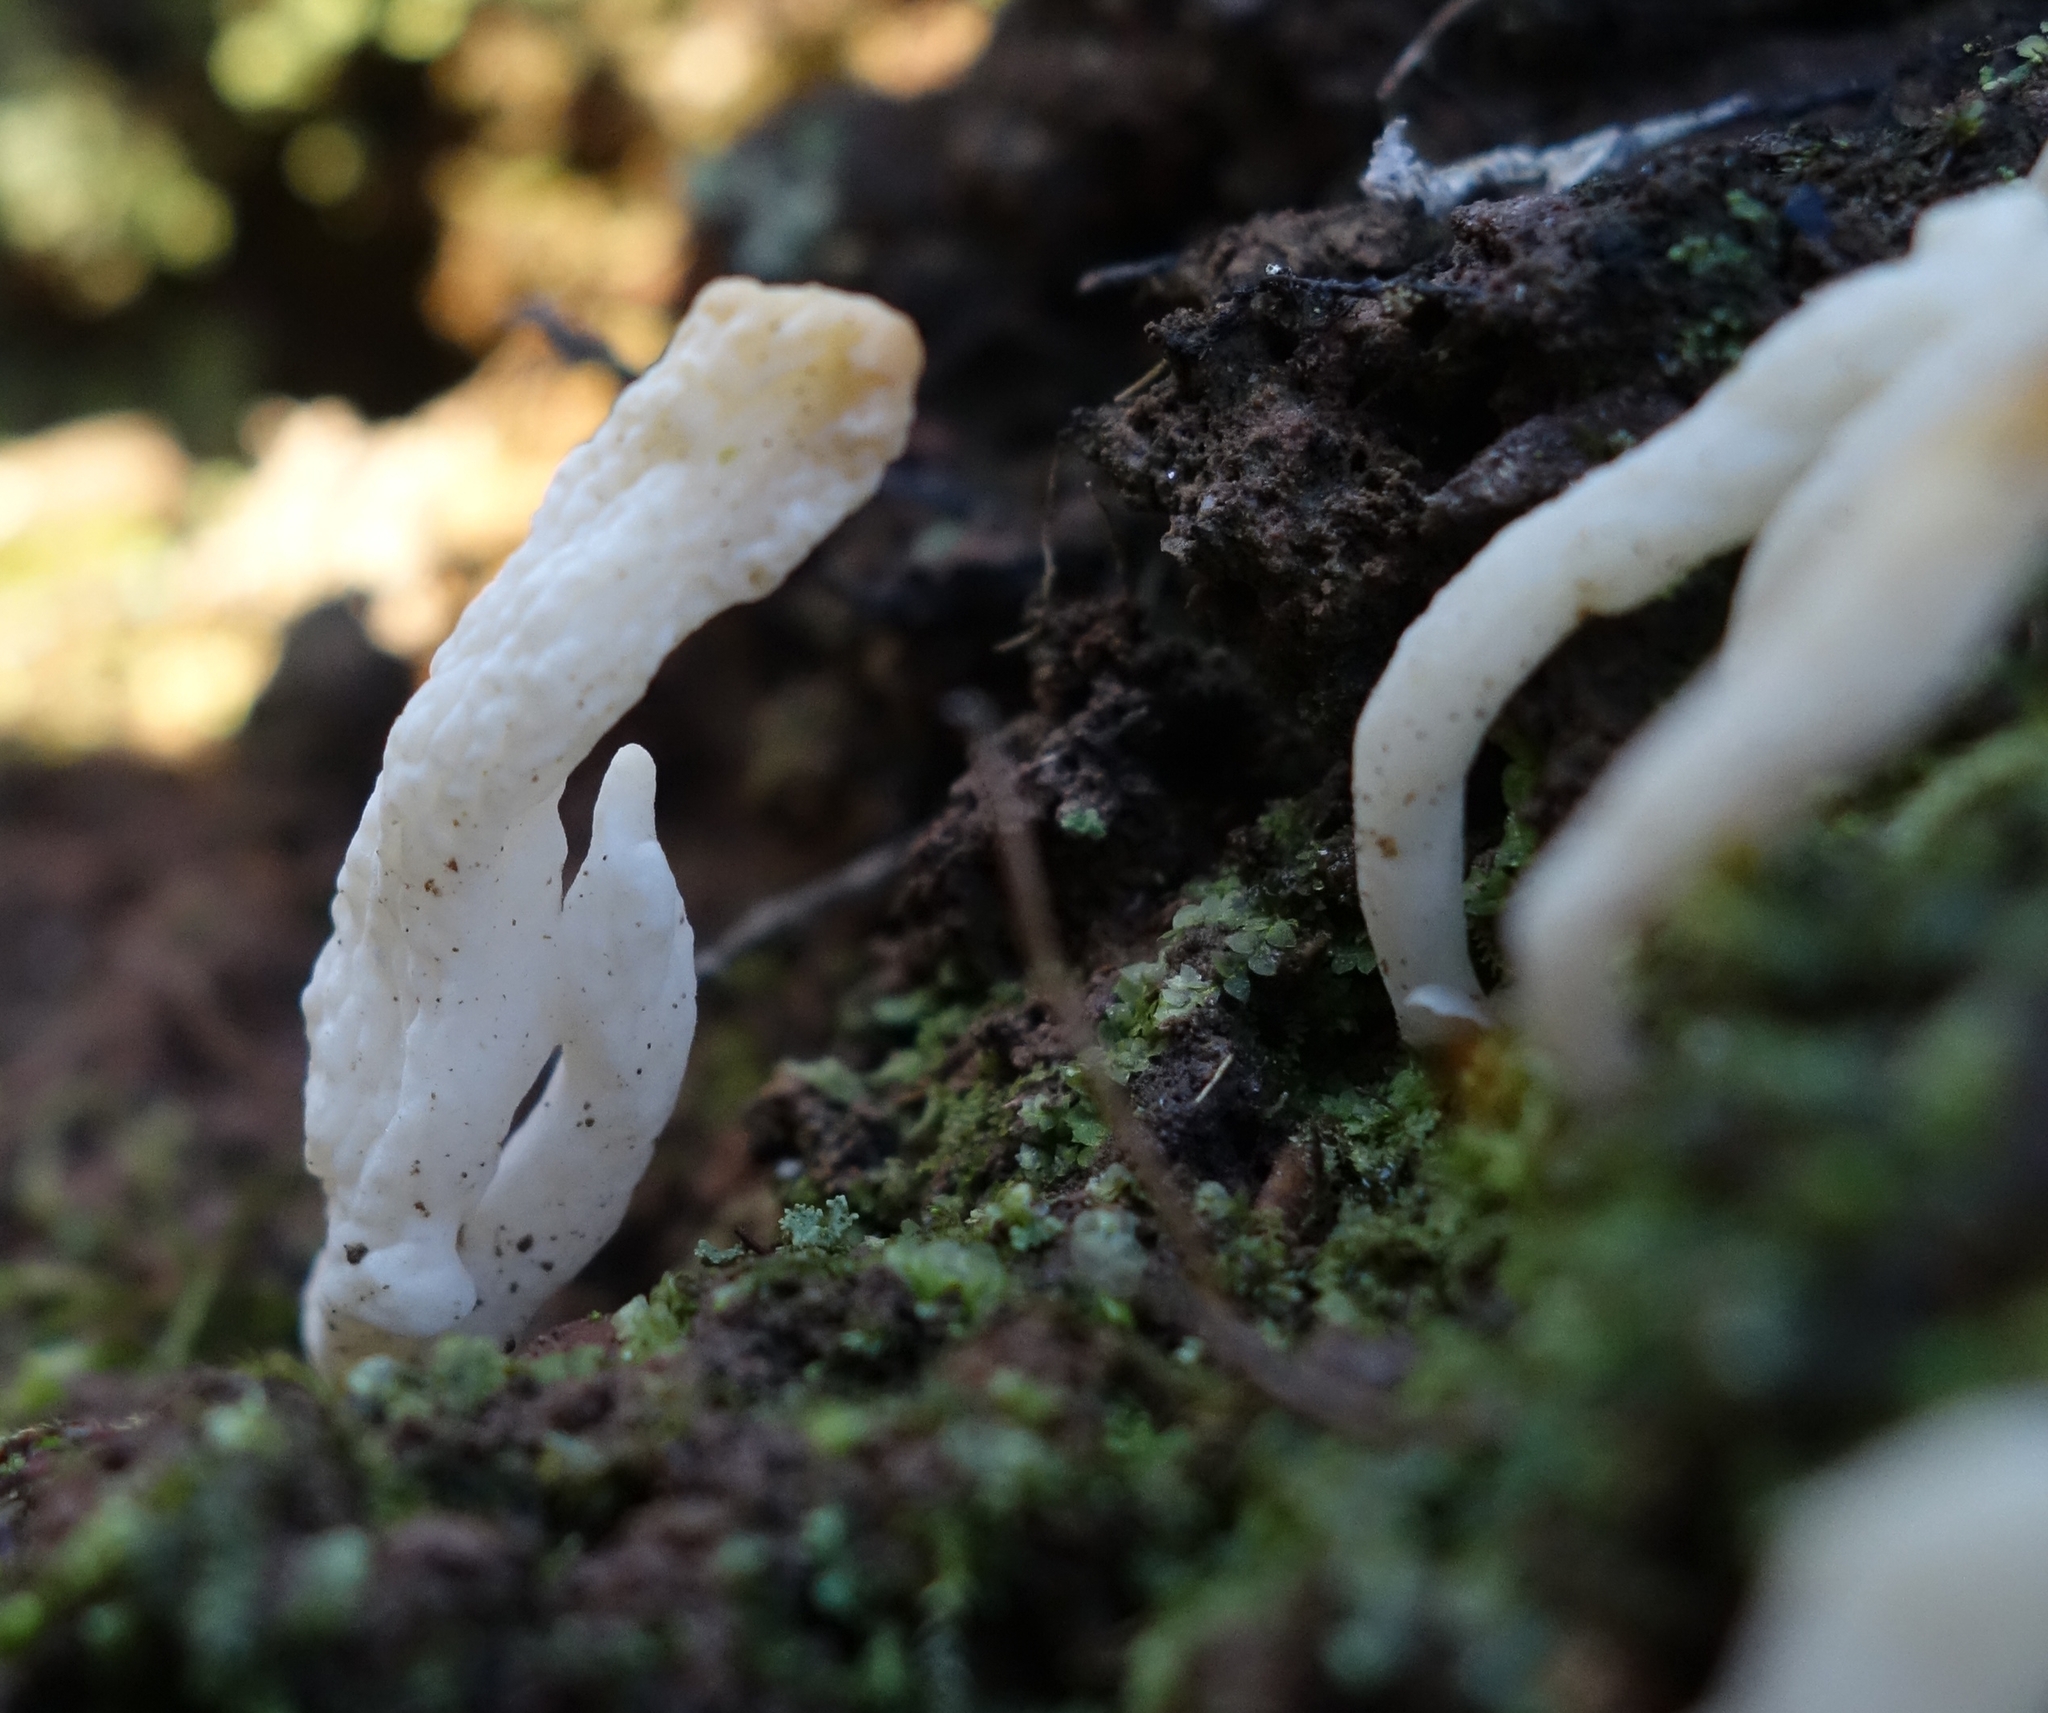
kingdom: Fungi
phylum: Basidiomycota
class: Agaricomycetes
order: Cantharellales
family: Hydnaceae
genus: Clavulina
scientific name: Clavulina rugosa
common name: Wrinkled club
